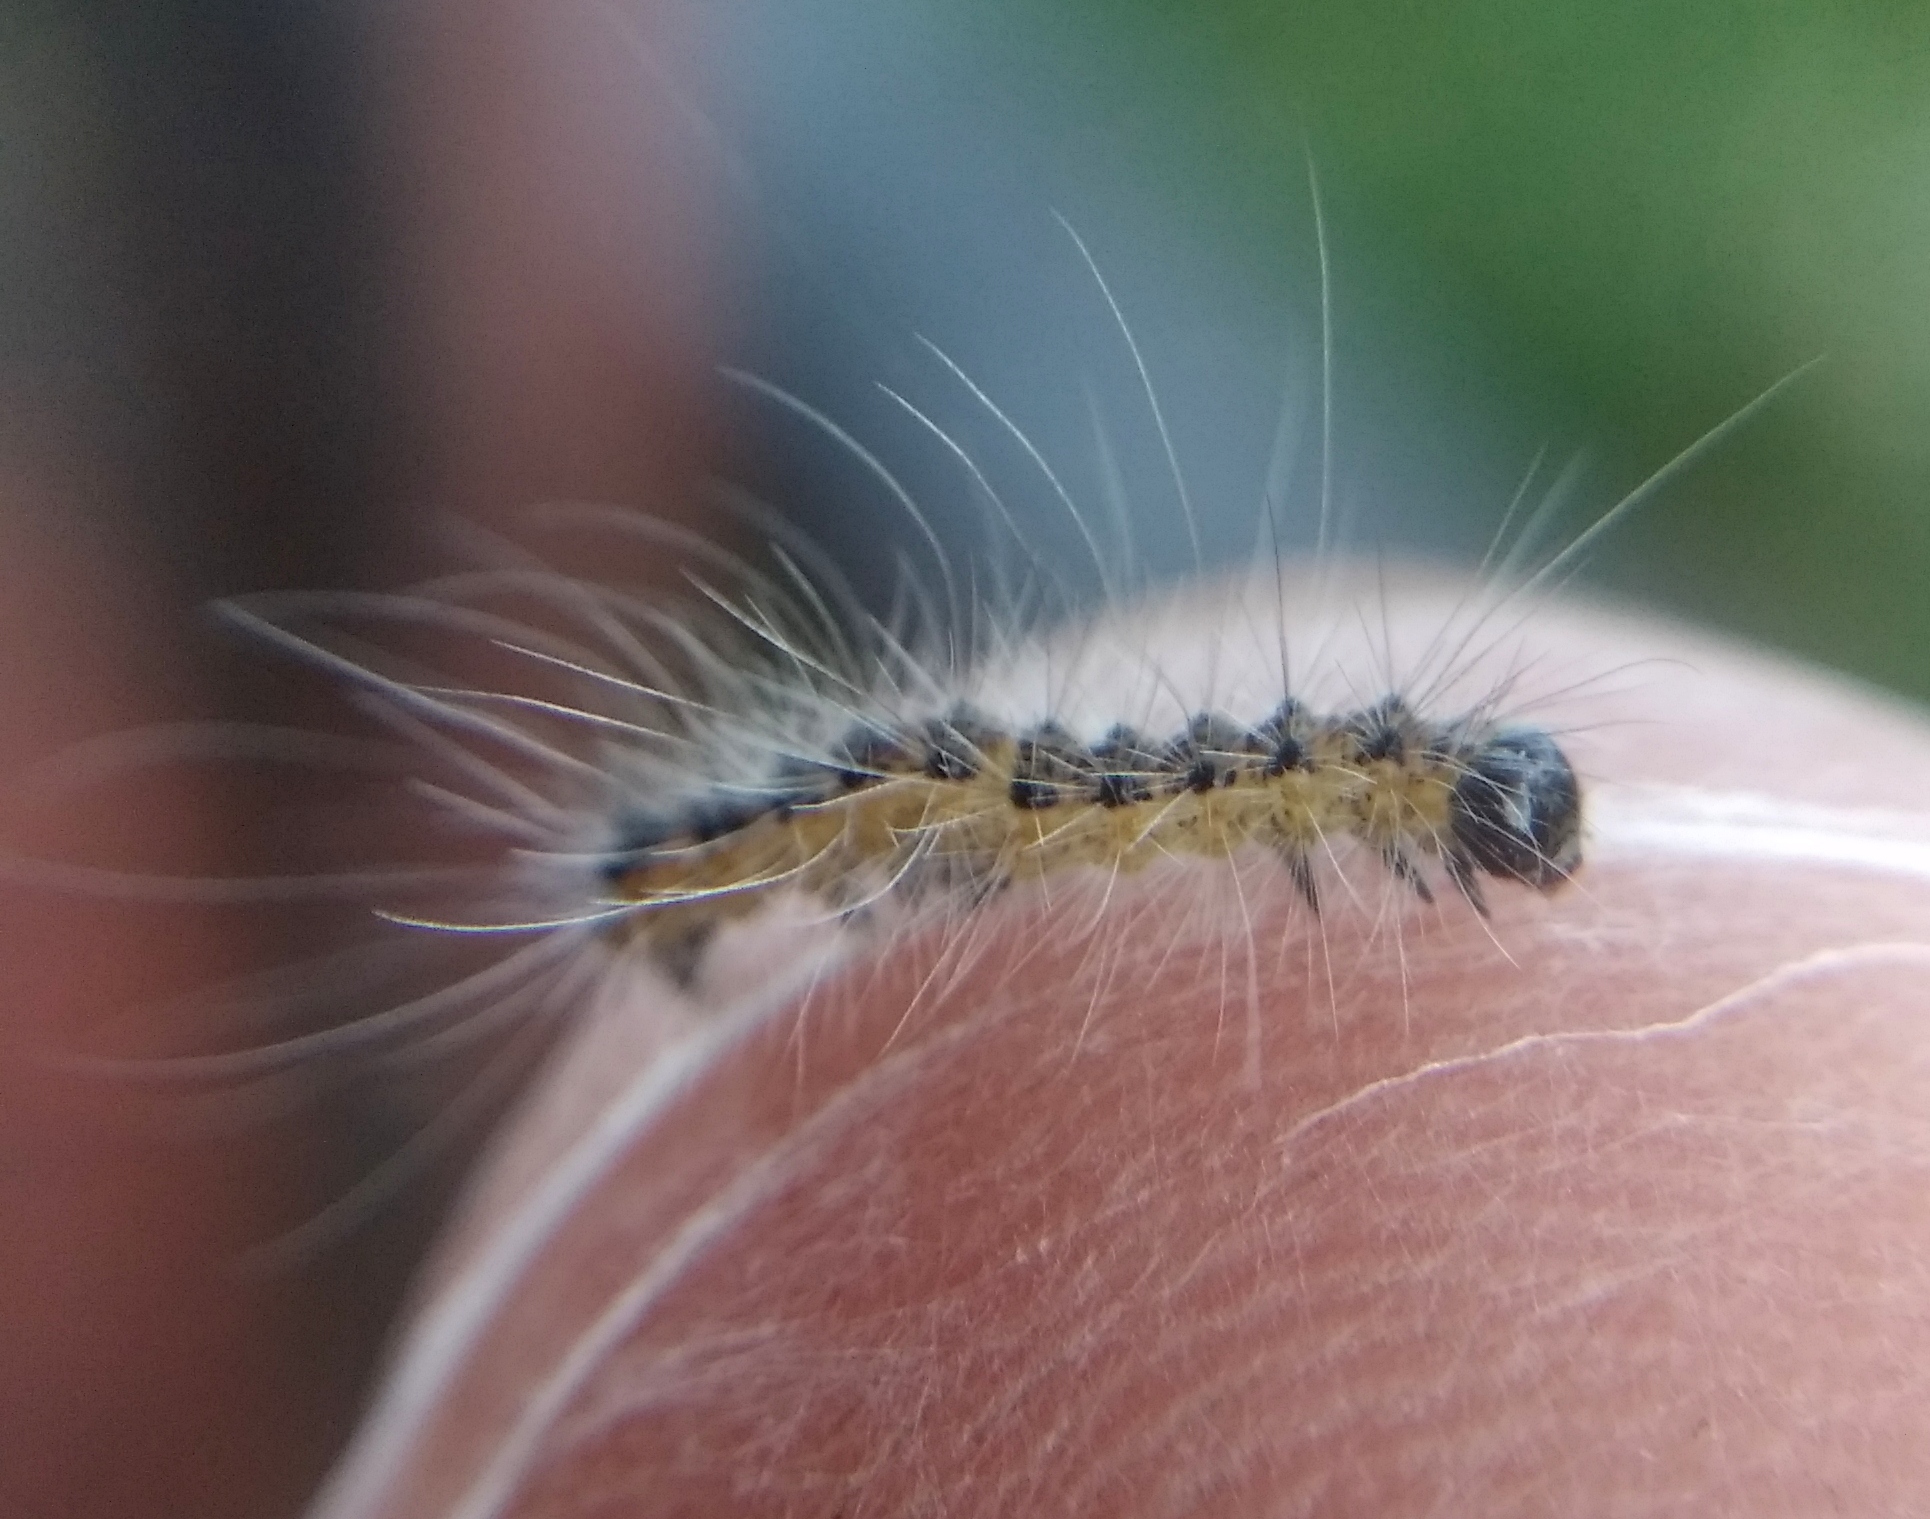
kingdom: Animalia
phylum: Arthropoda
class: Insecta
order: Lepidoptera
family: Erebidae
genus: Hyphantria
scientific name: Hyphantria cunea
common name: American white moth
